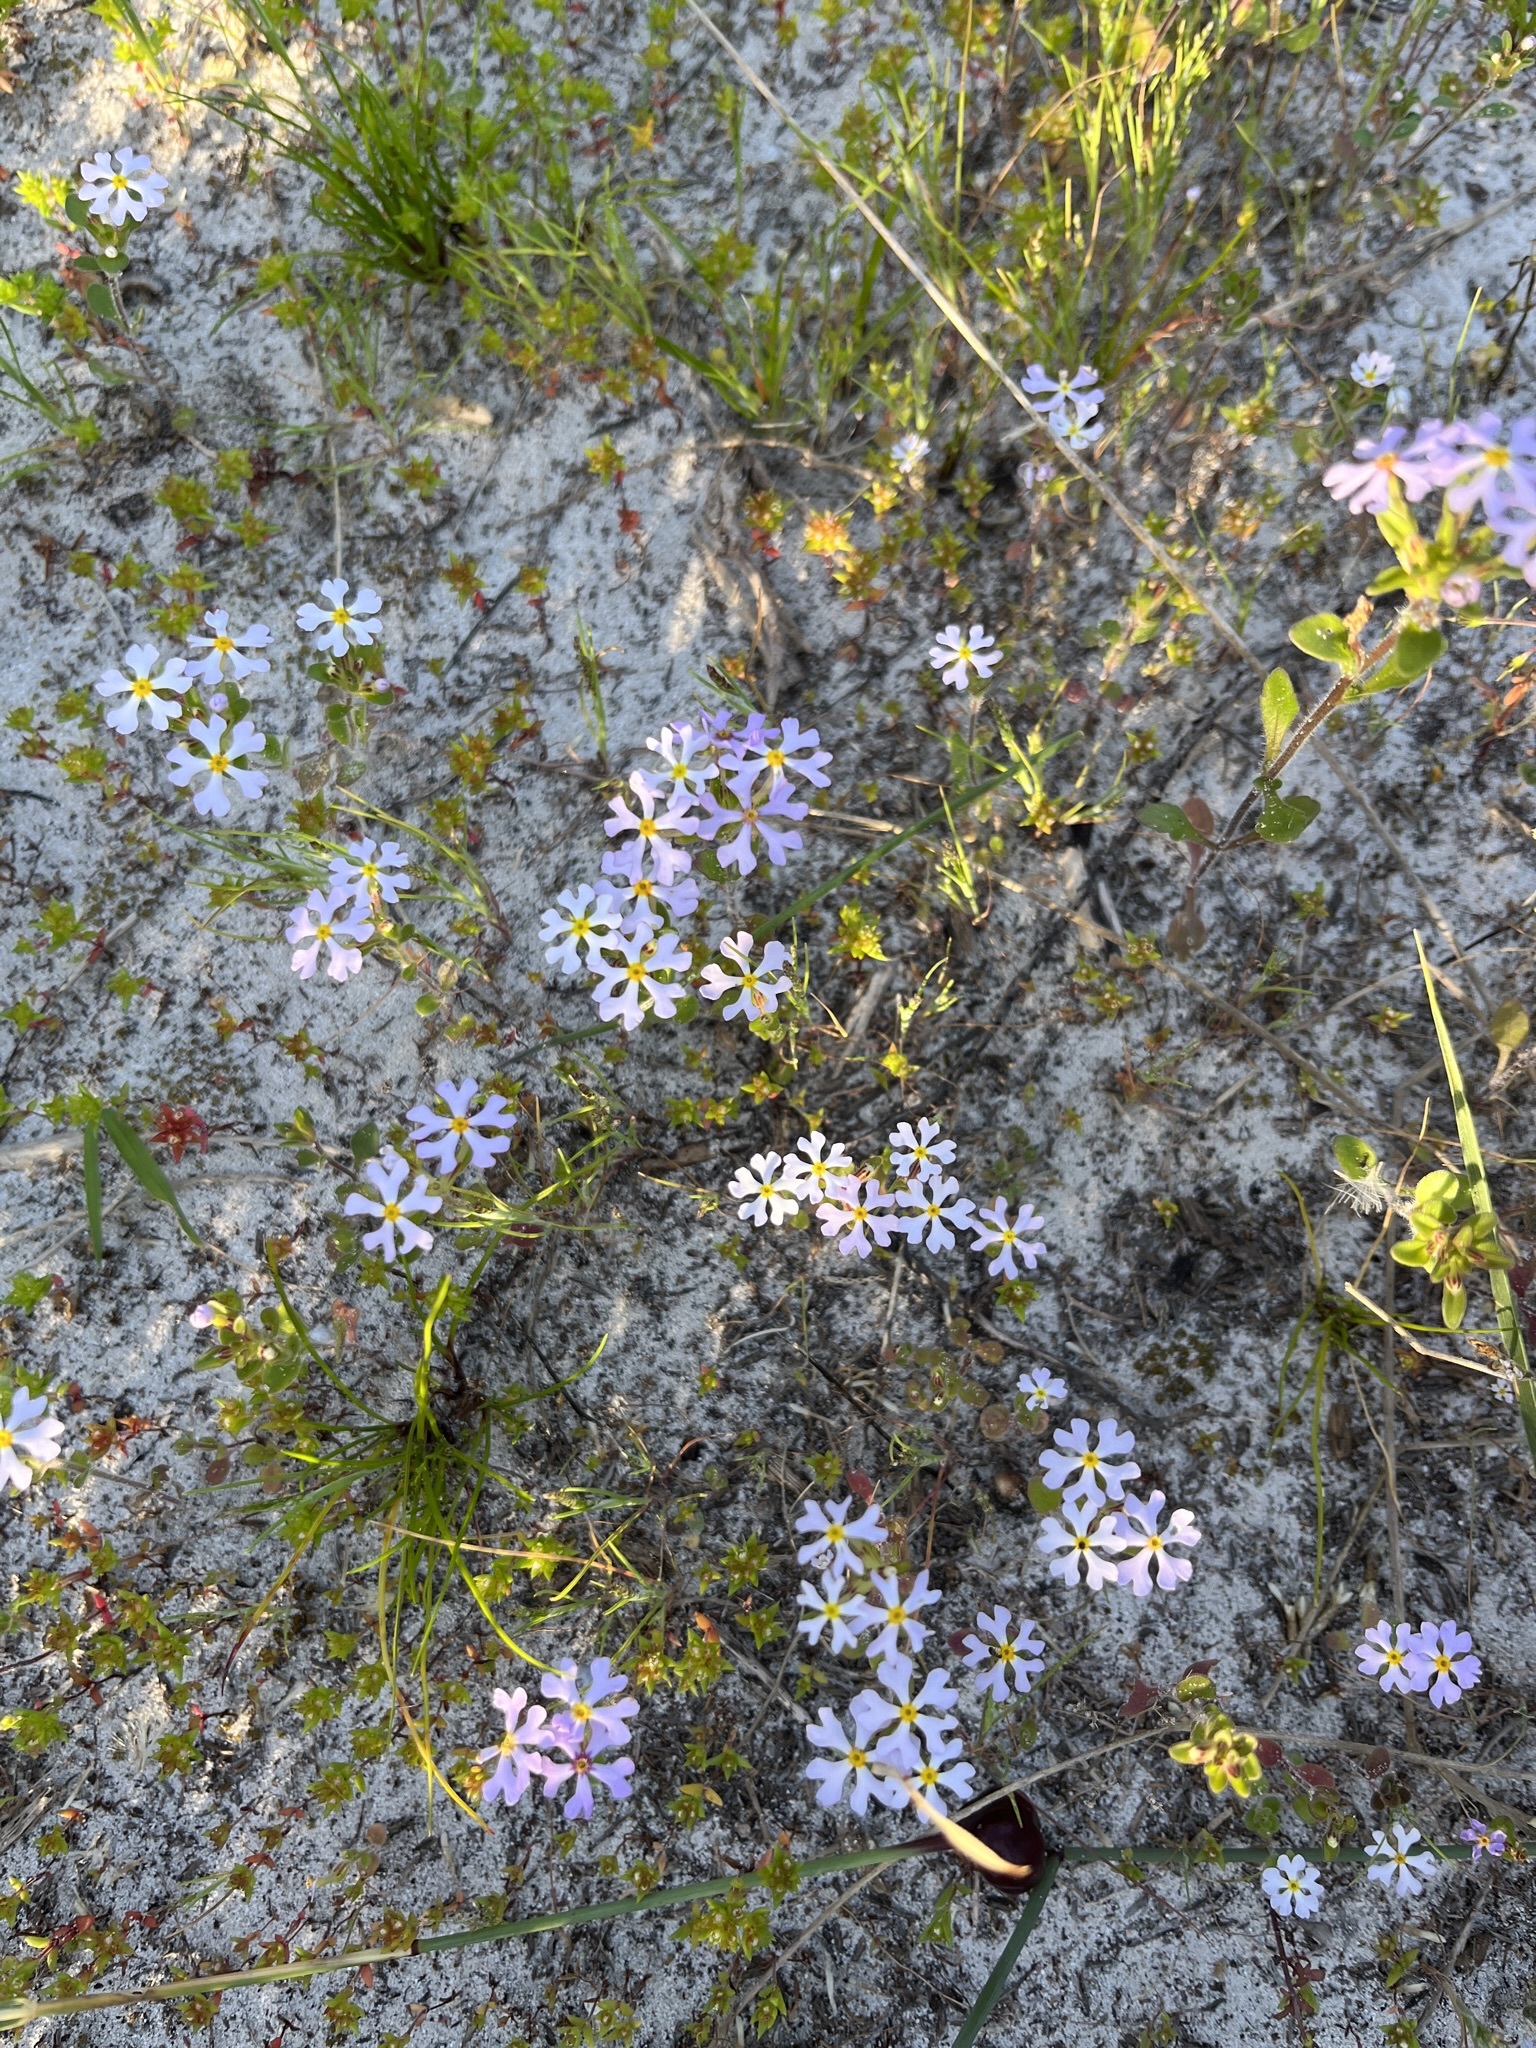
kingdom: Plantae
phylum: Tracheophyta
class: Magnoliopsida
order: Lamiales
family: Scrophulariaceae
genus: Zaluzianskya
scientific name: Zaluzianskya villosa
